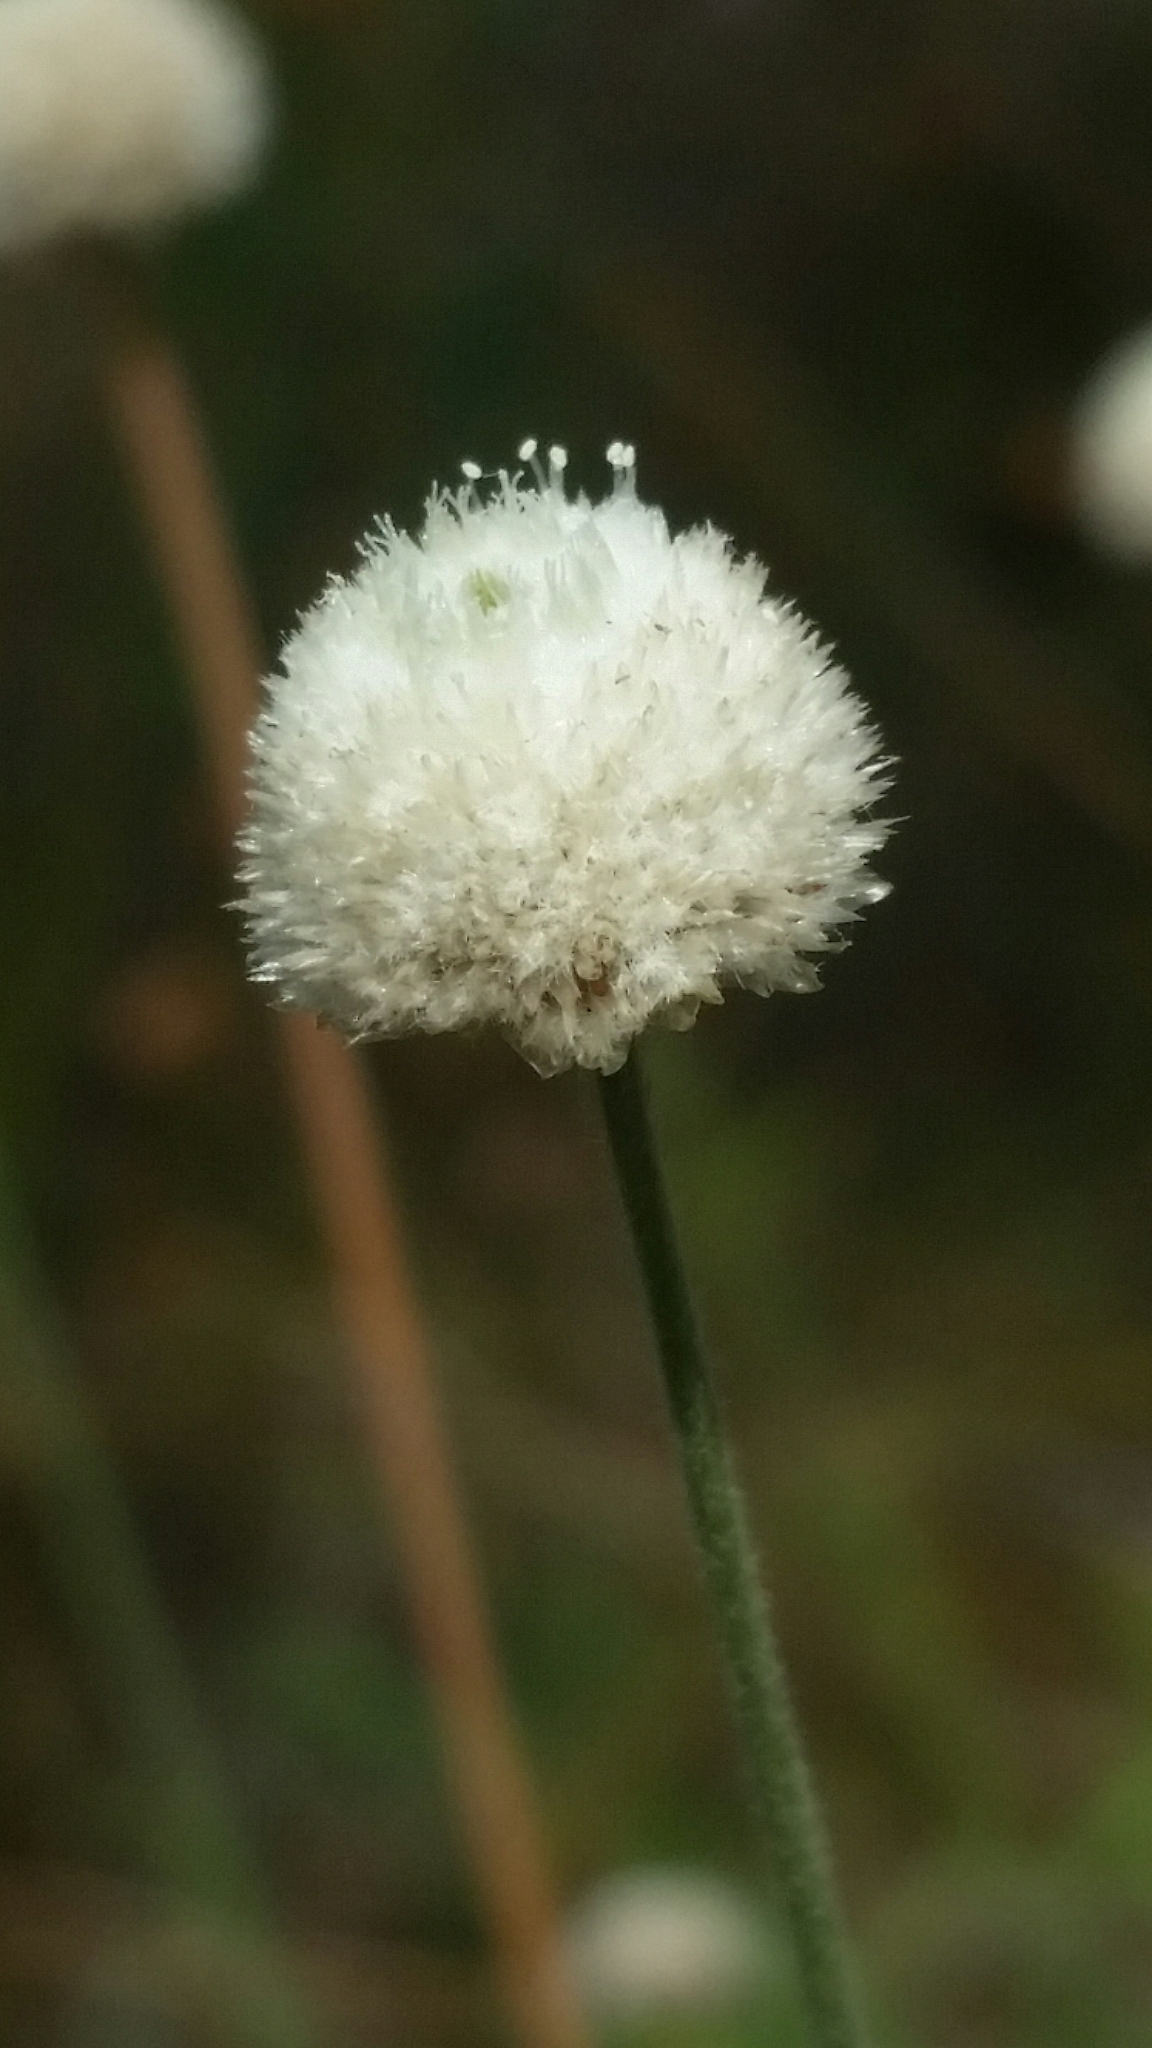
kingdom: Plantae
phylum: Tracheophyta
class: Liliopsida
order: Poales
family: Eriocaulaceae
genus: Syngonanthus
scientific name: Syngonanthus flavidulus
